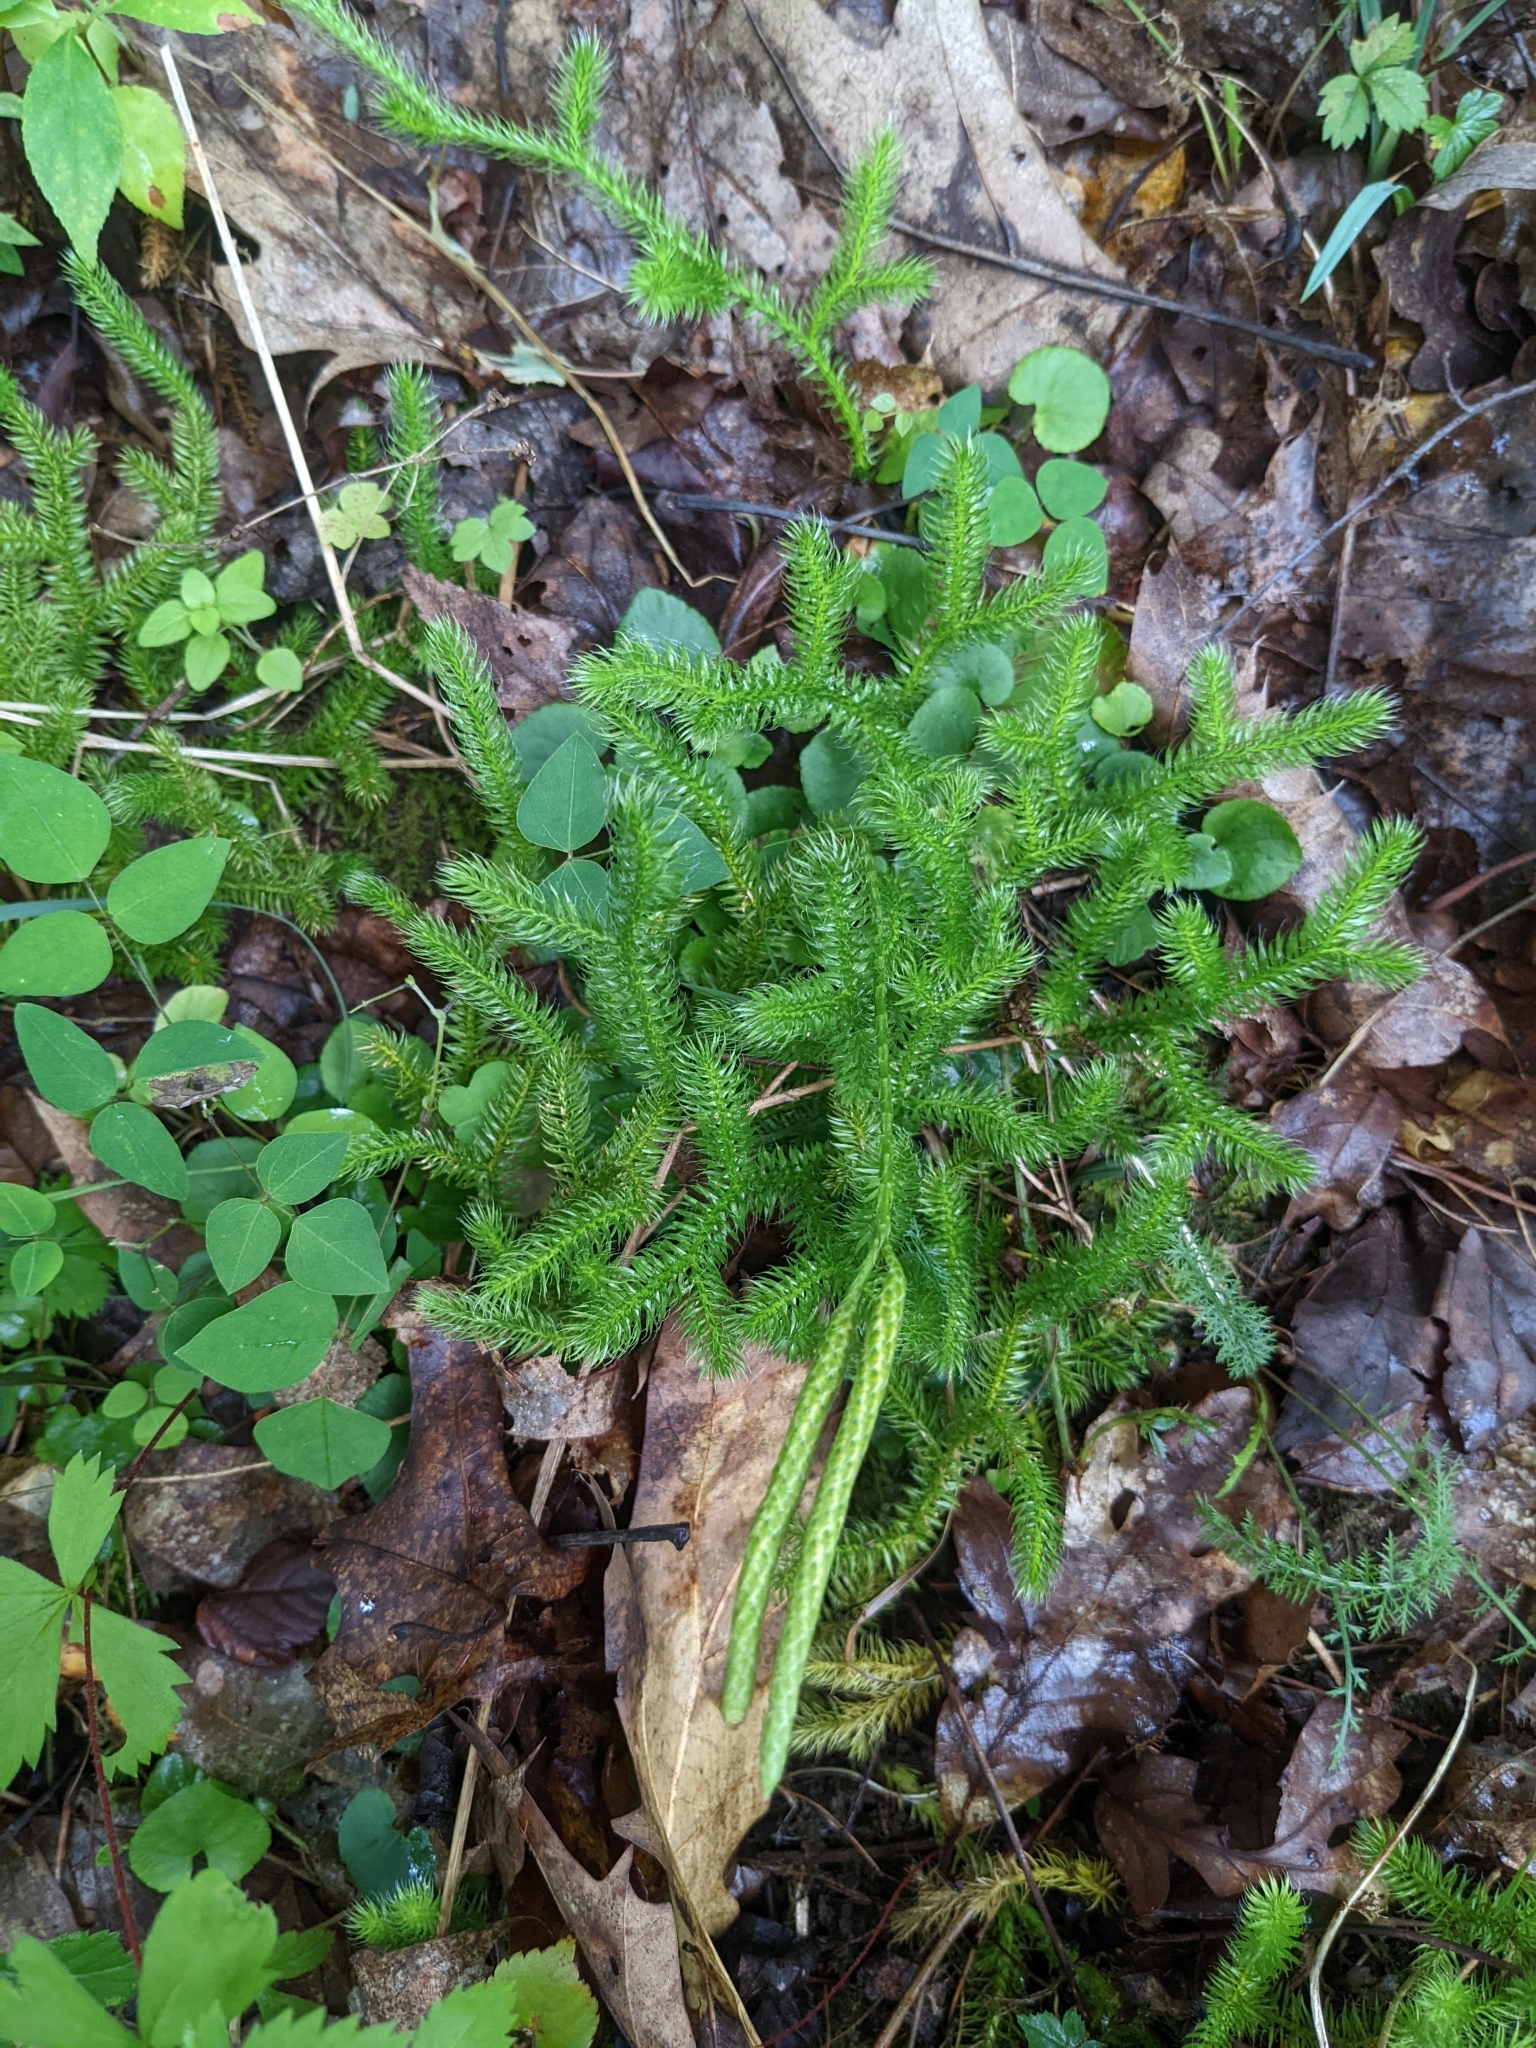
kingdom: Plantae
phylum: Tracheophyta
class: Lycopodiopsida
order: Lycopodiales
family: Lycopodiaceae
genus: Lycopodium
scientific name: Lycopodium clavatum
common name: Stag's-horn clubmoss
